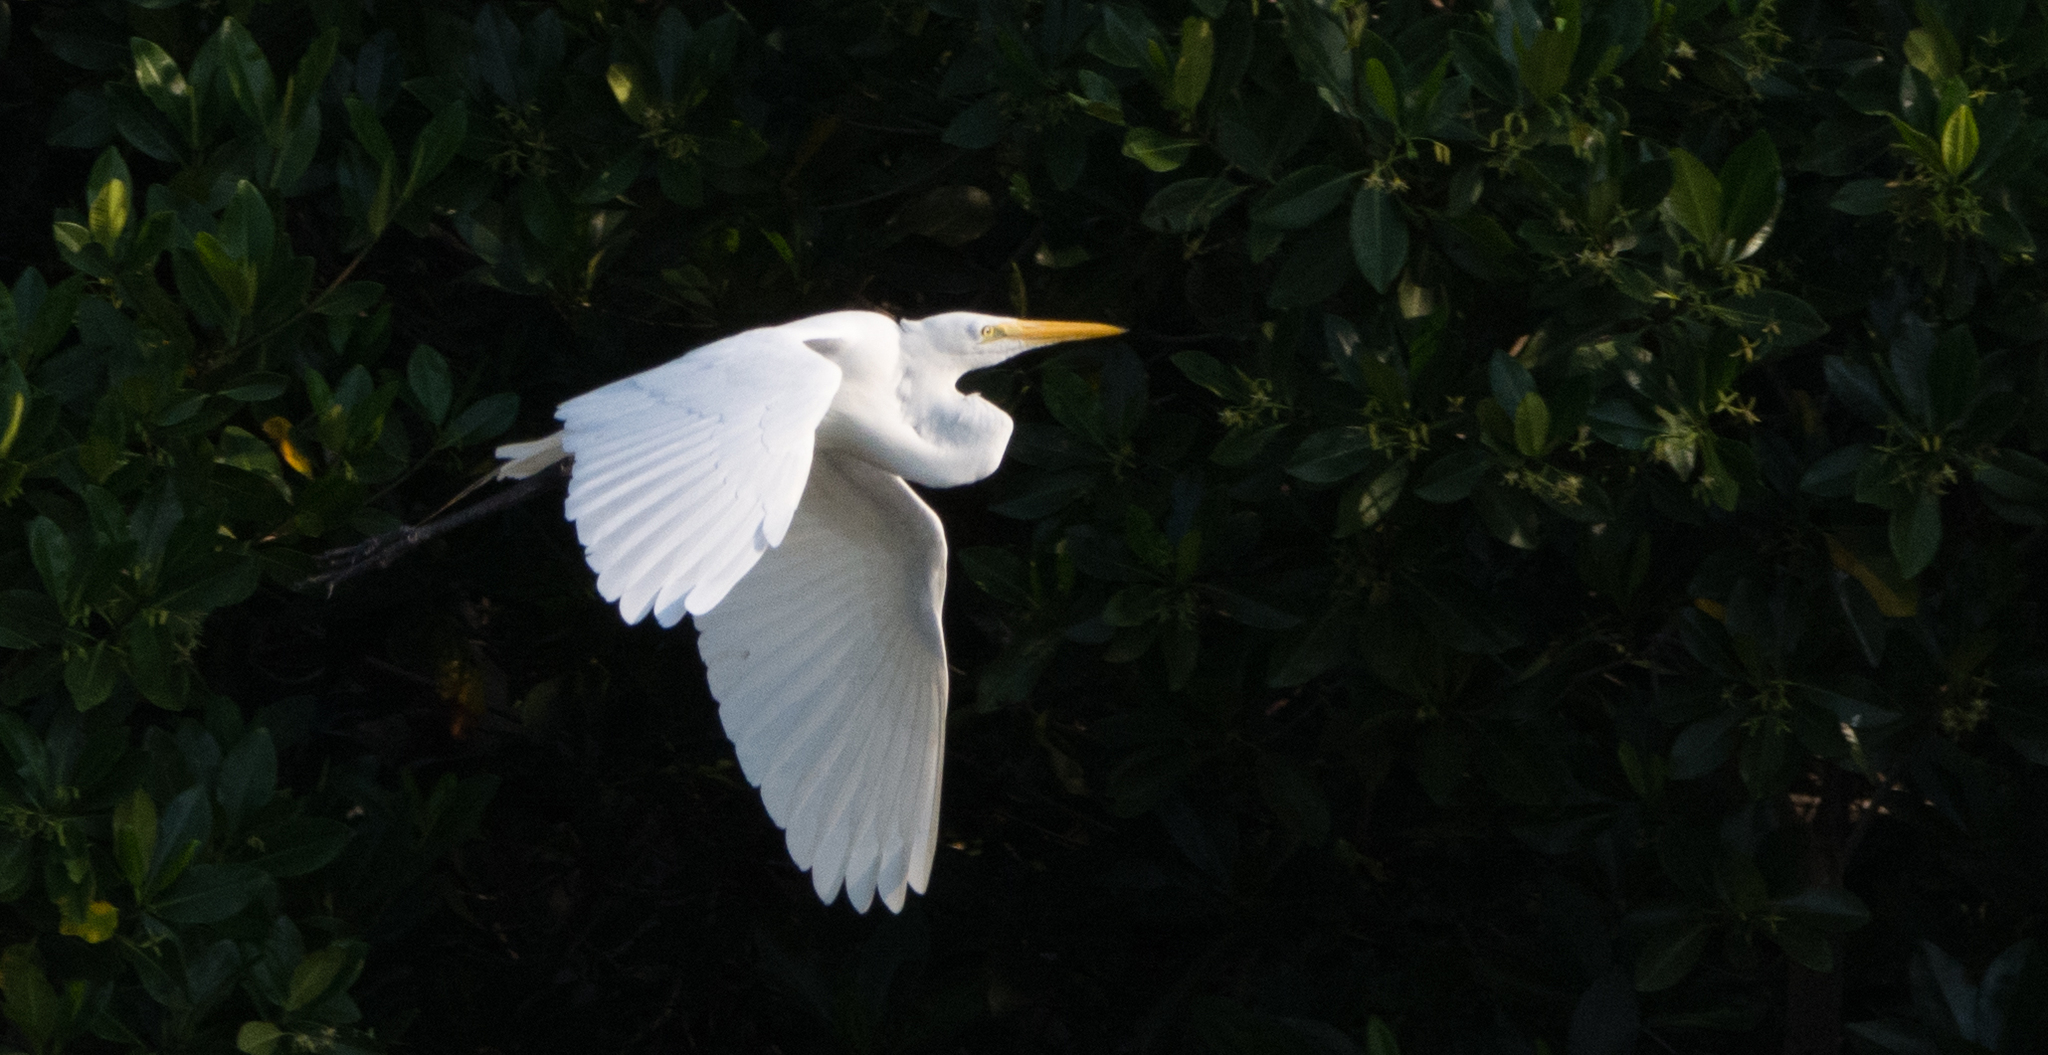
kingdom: Animalia
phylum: Chordata
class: Aves
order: Pelecaniformes
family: Ardeidae
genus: Ardea
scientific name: Ardea alba
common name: Great egret
